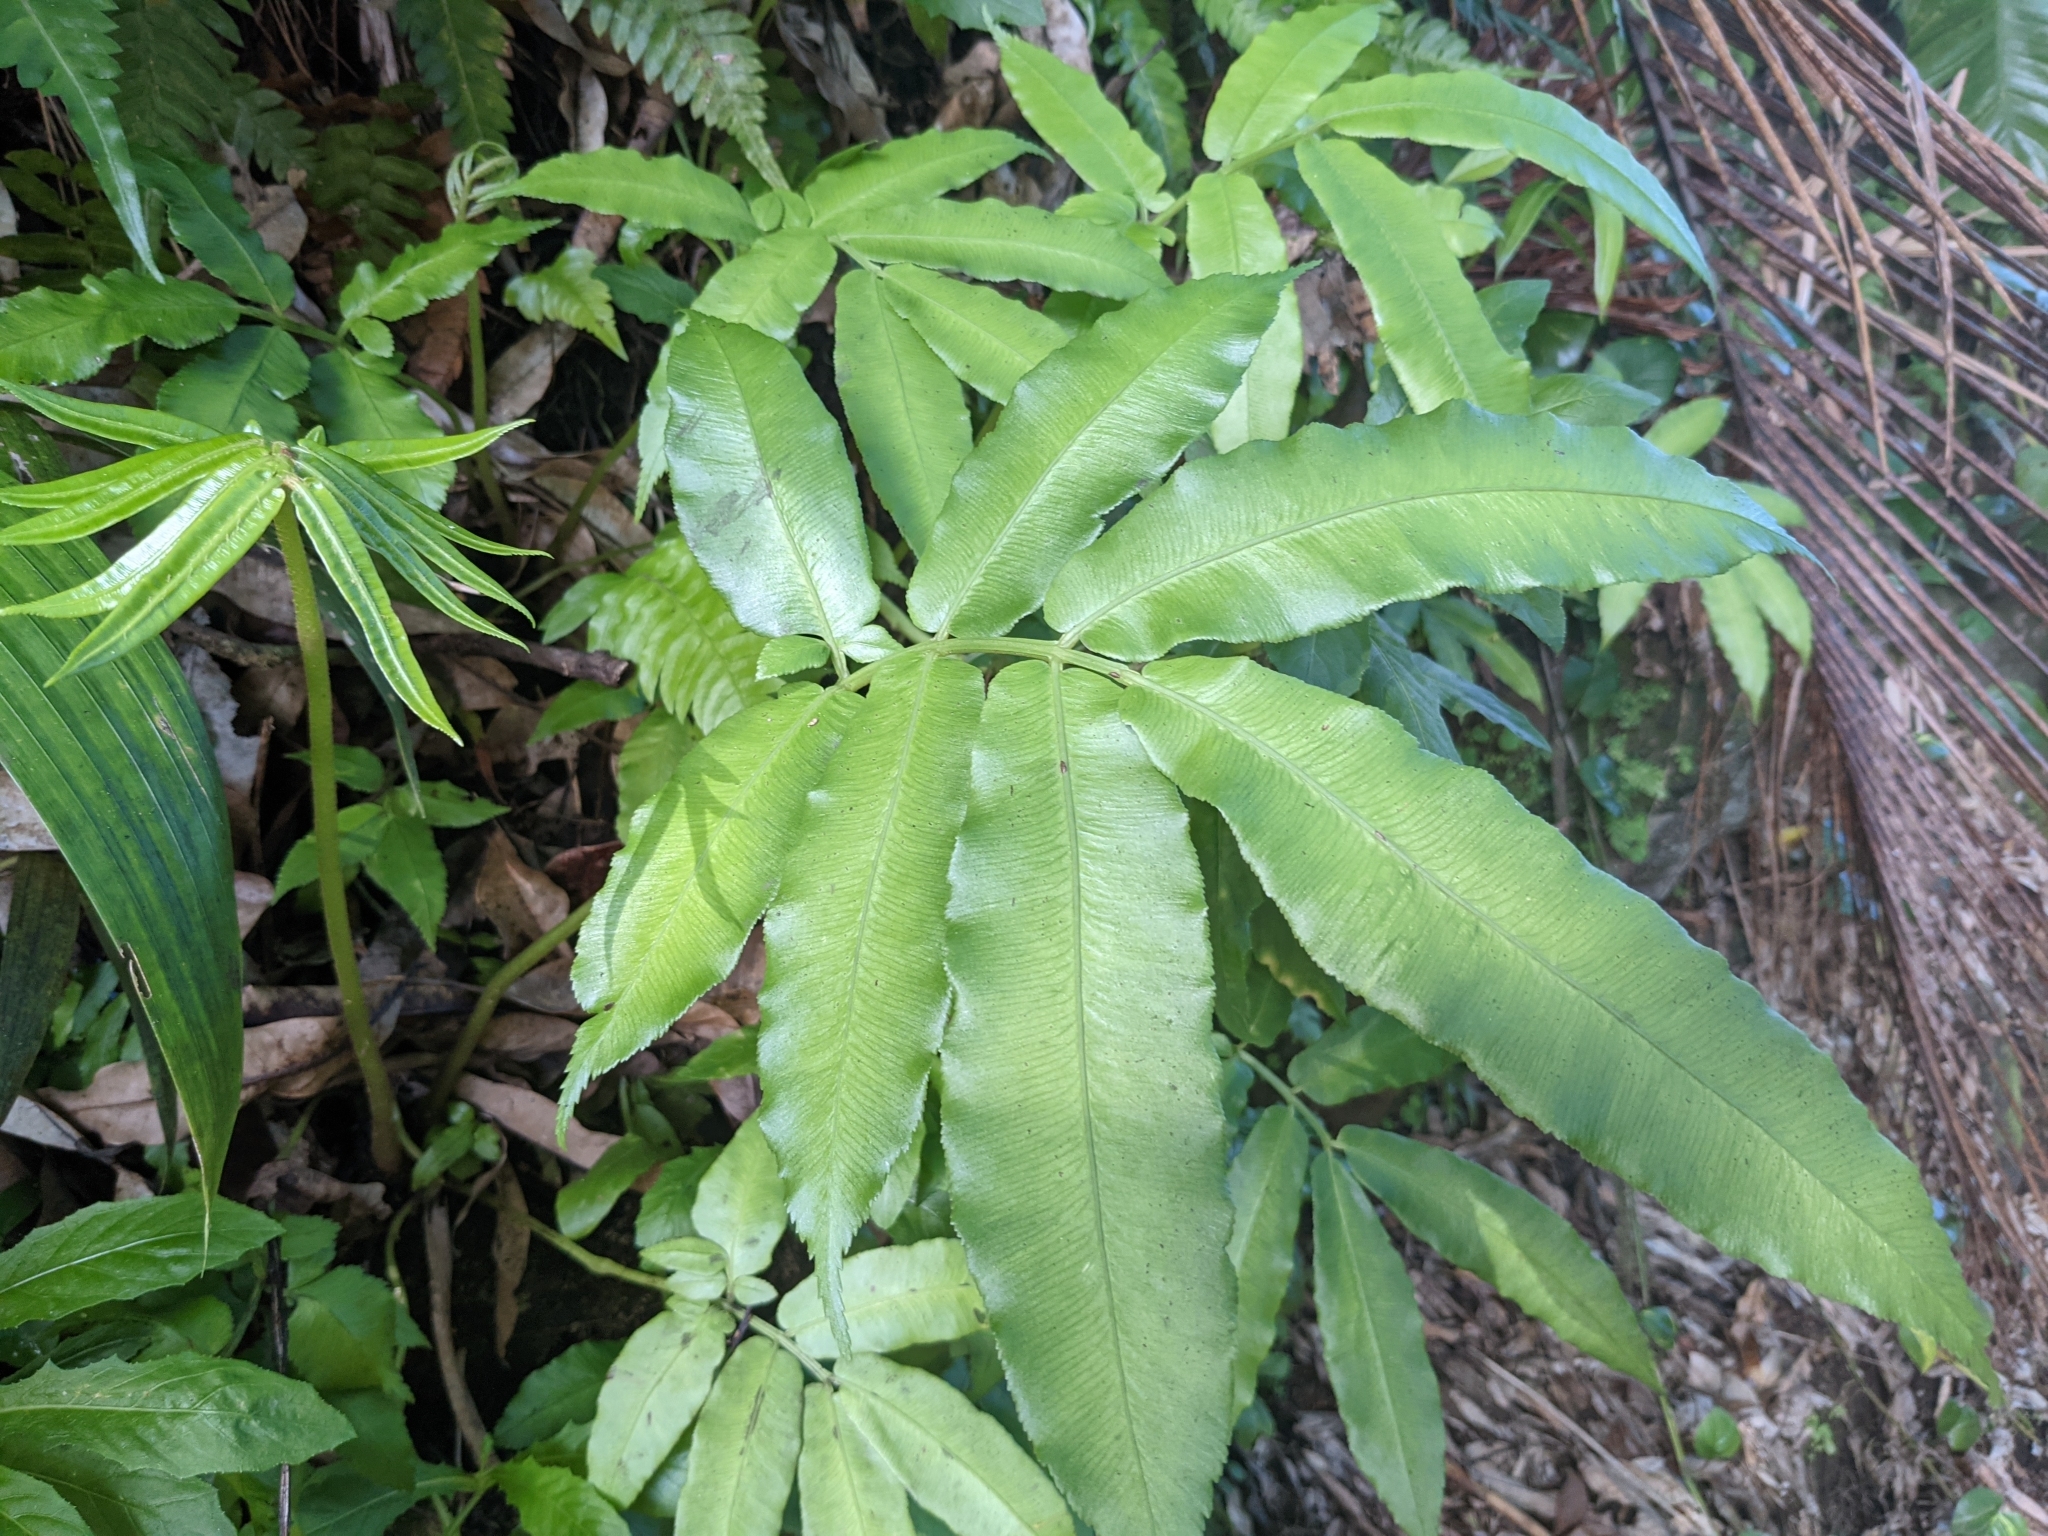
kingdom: Plantae
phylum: Tracheophyta
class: Polypodiopsida
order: Marattiales
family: Marattiaceae
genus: Angiopteris
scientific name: Angiopteris evecta
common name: Mule's-foot fern
